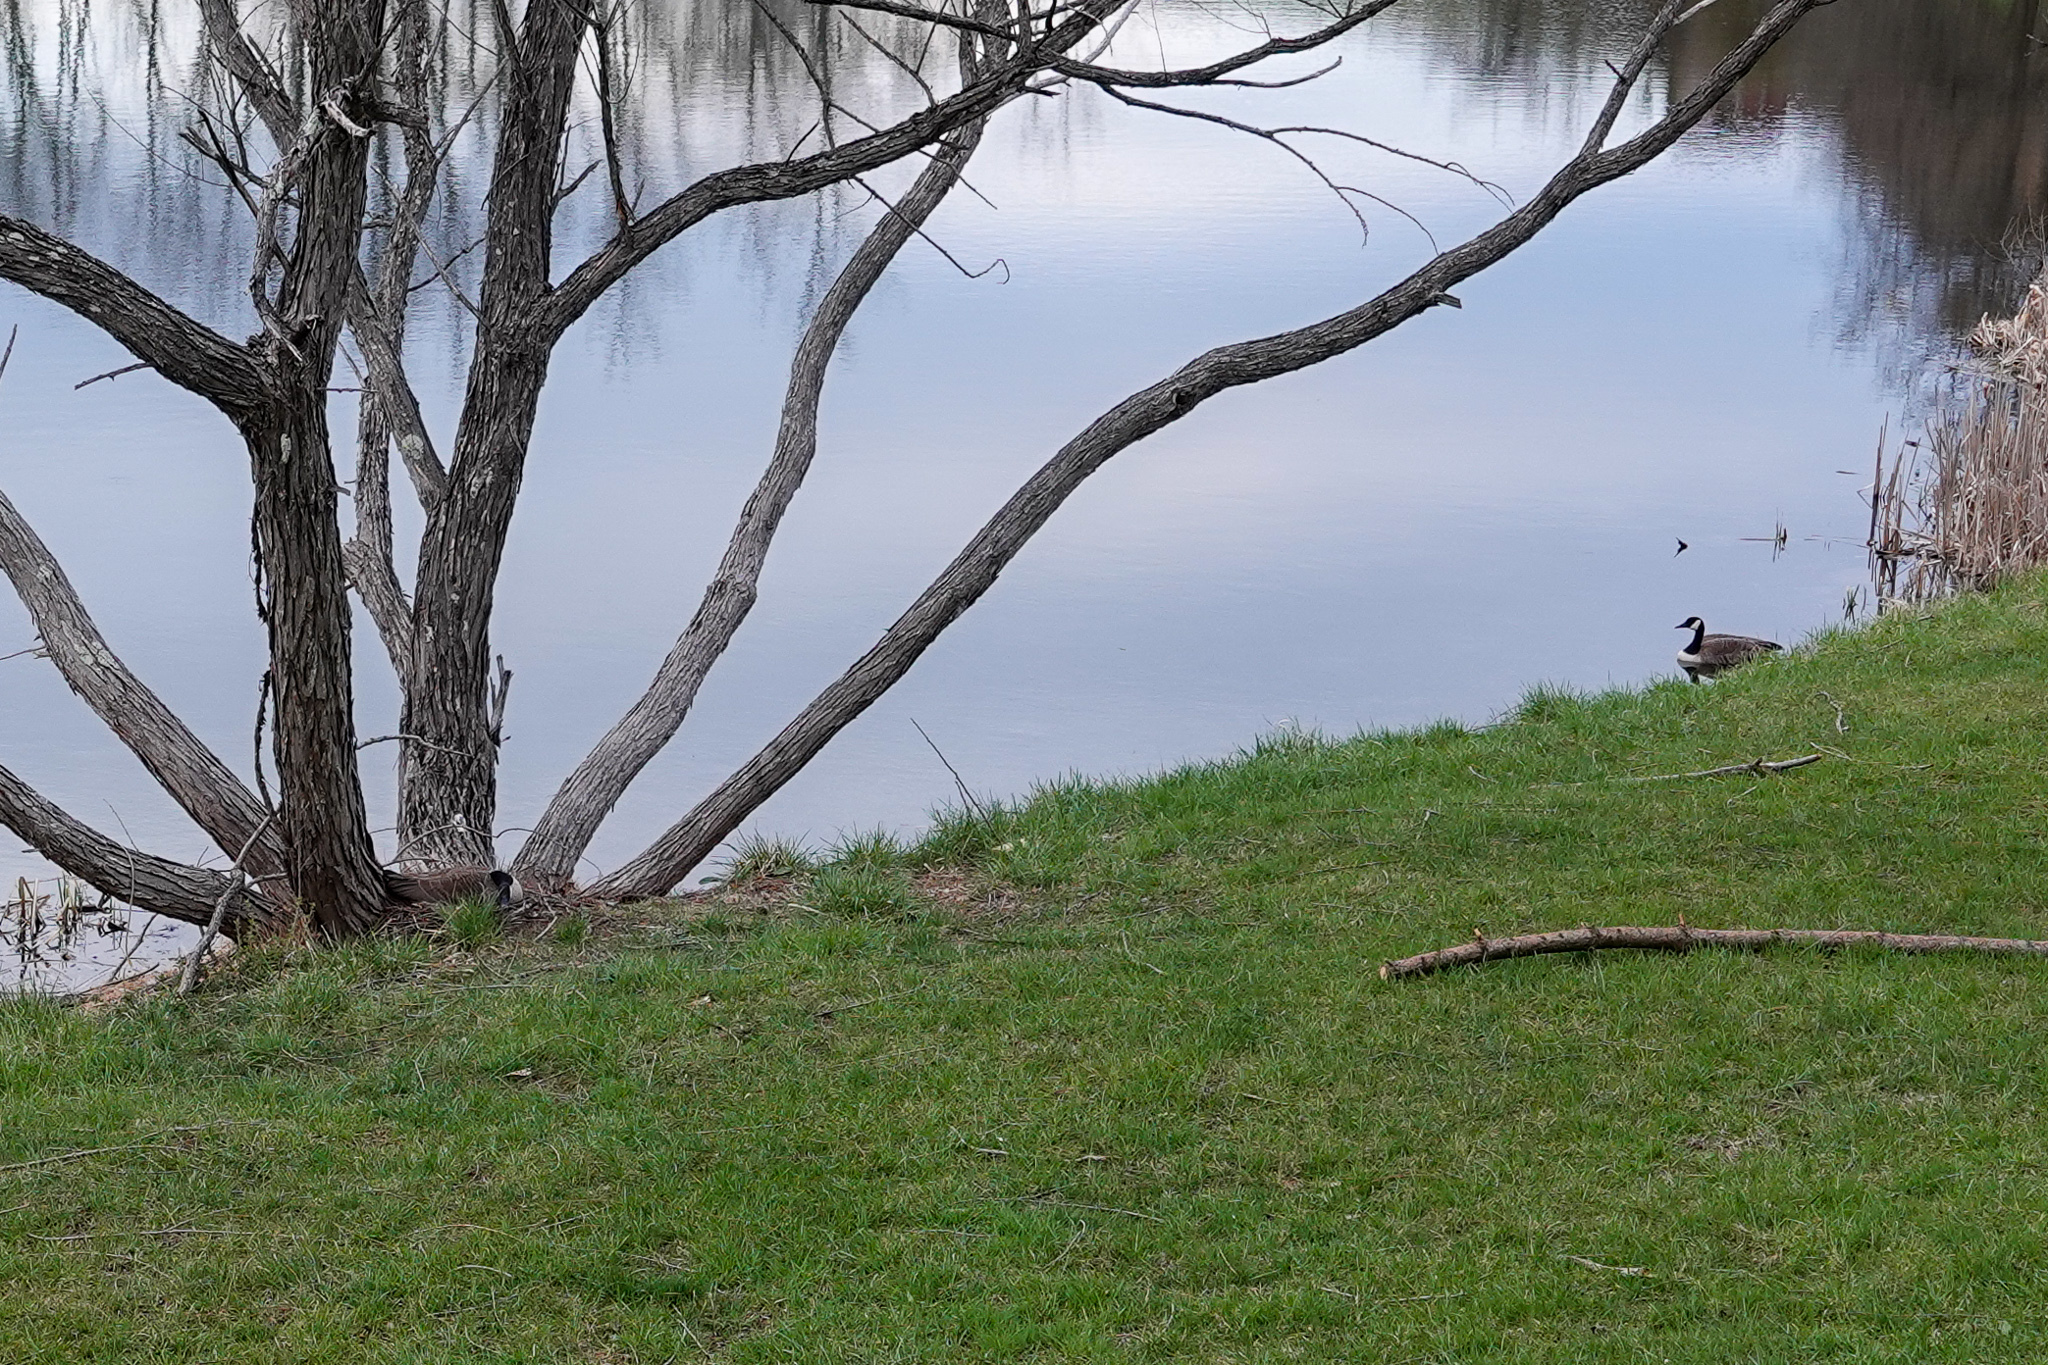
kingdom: Animalia
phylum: Chordata
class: Aves
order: Anseriformes
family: Anatidae
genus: Branta
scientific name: Branta canadensis
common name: Canada goose
